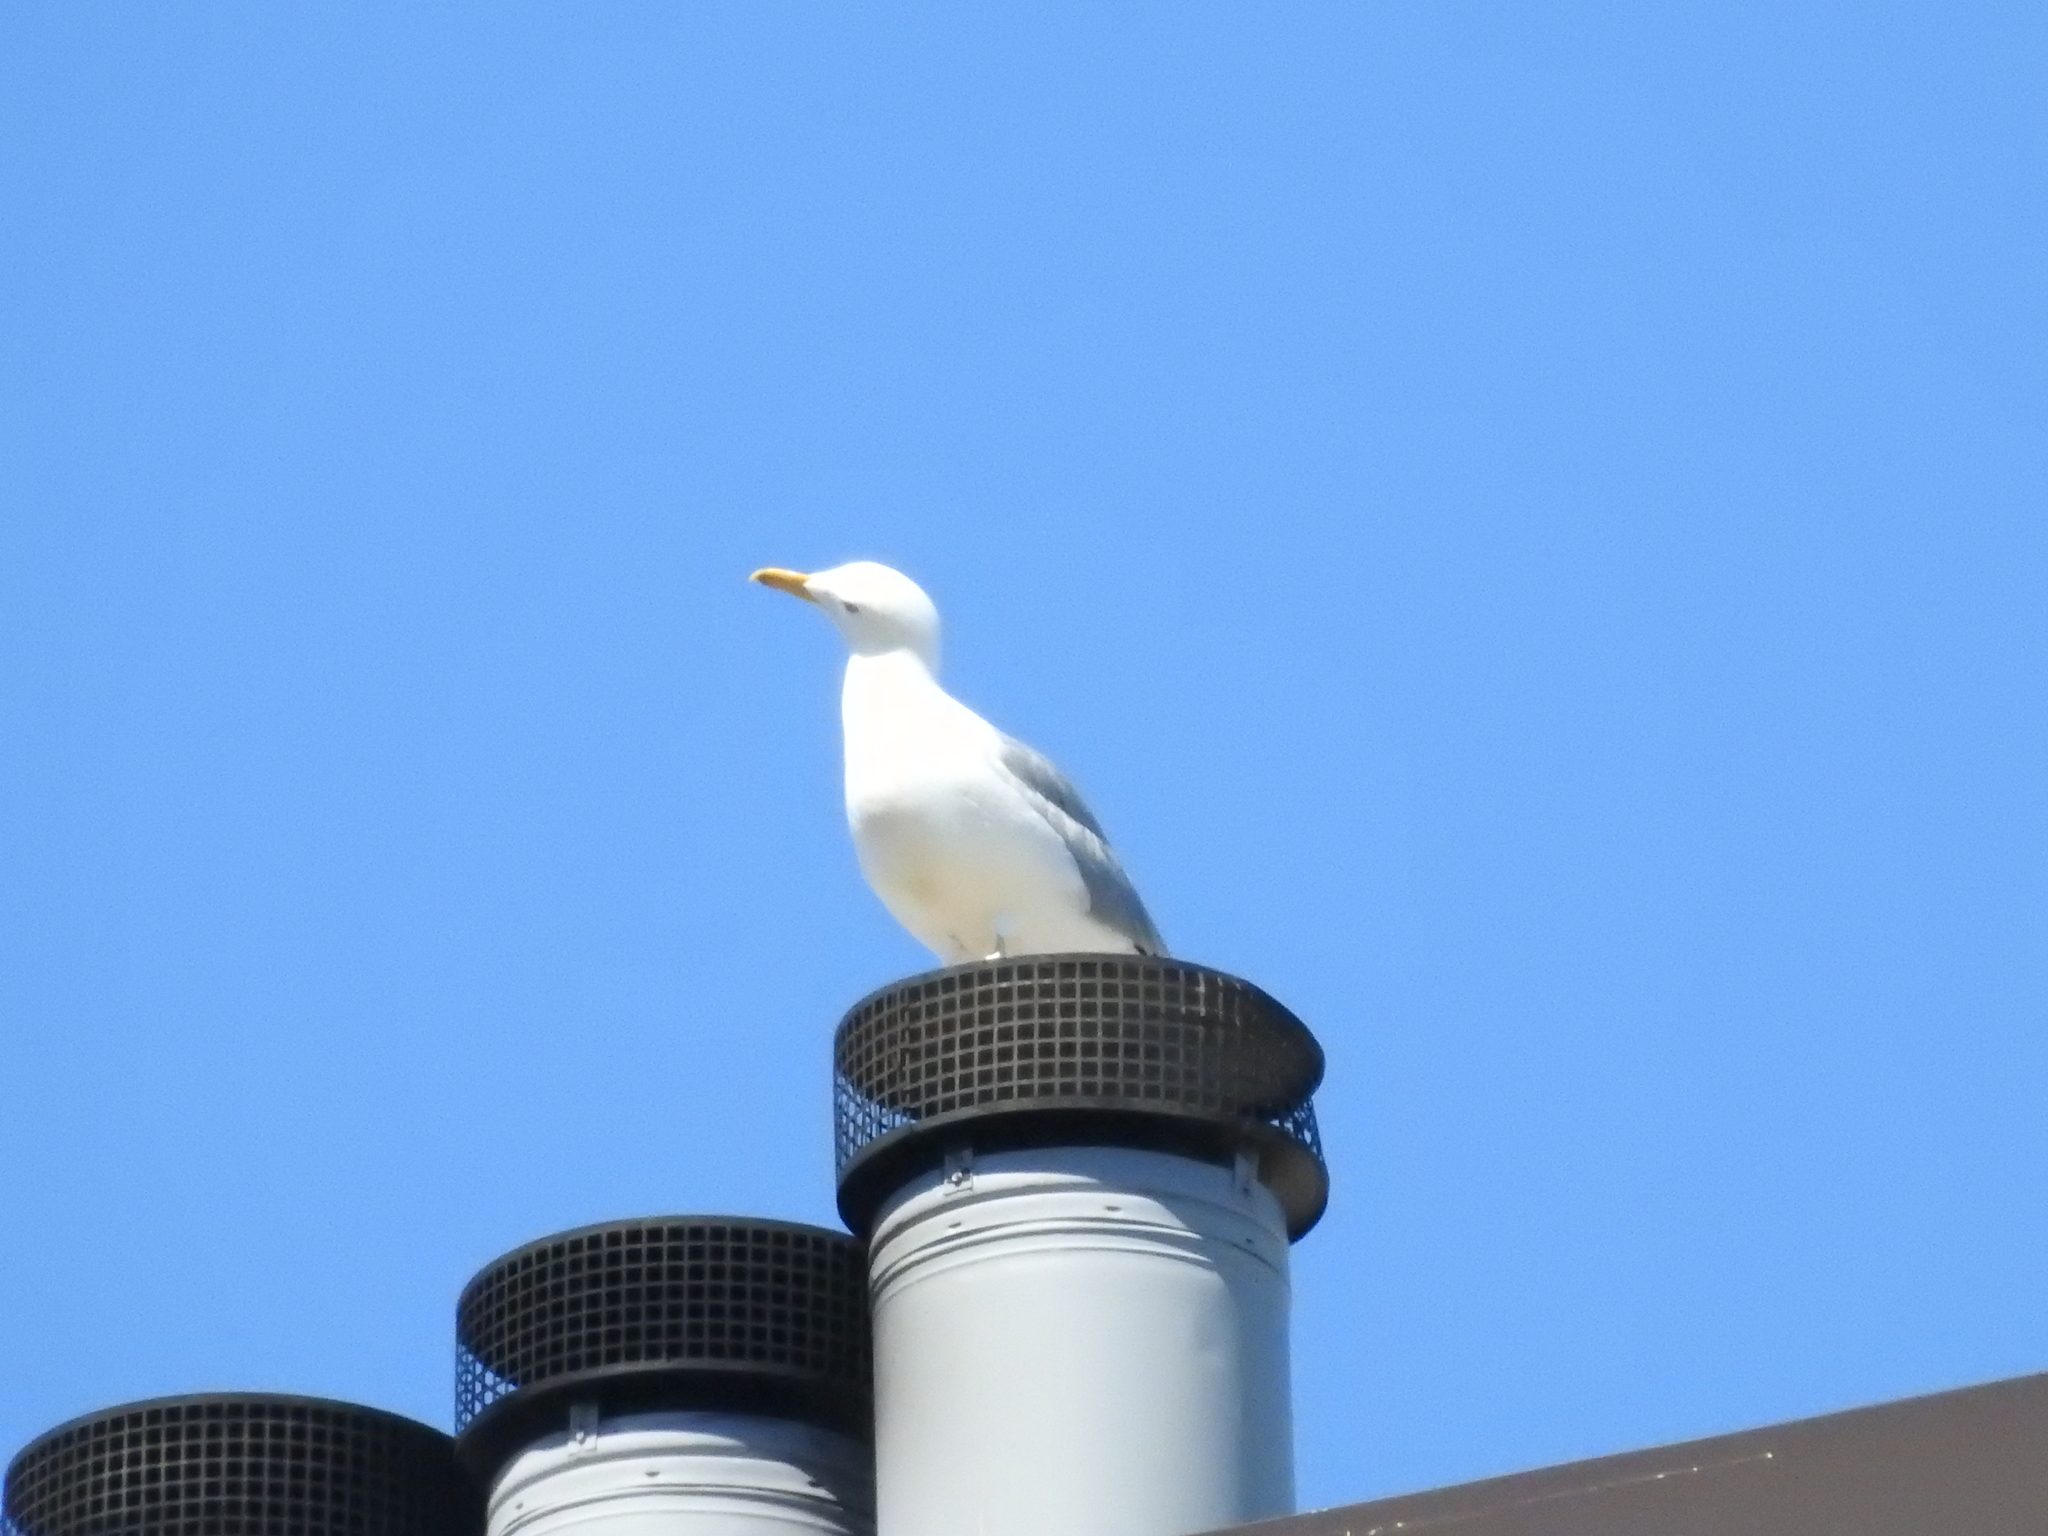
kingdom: Animalia
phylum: Chordata
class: Aves
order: Charadriiformes
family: Laridae
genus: Larus
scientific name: Larus argentatus
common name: Herring gull
